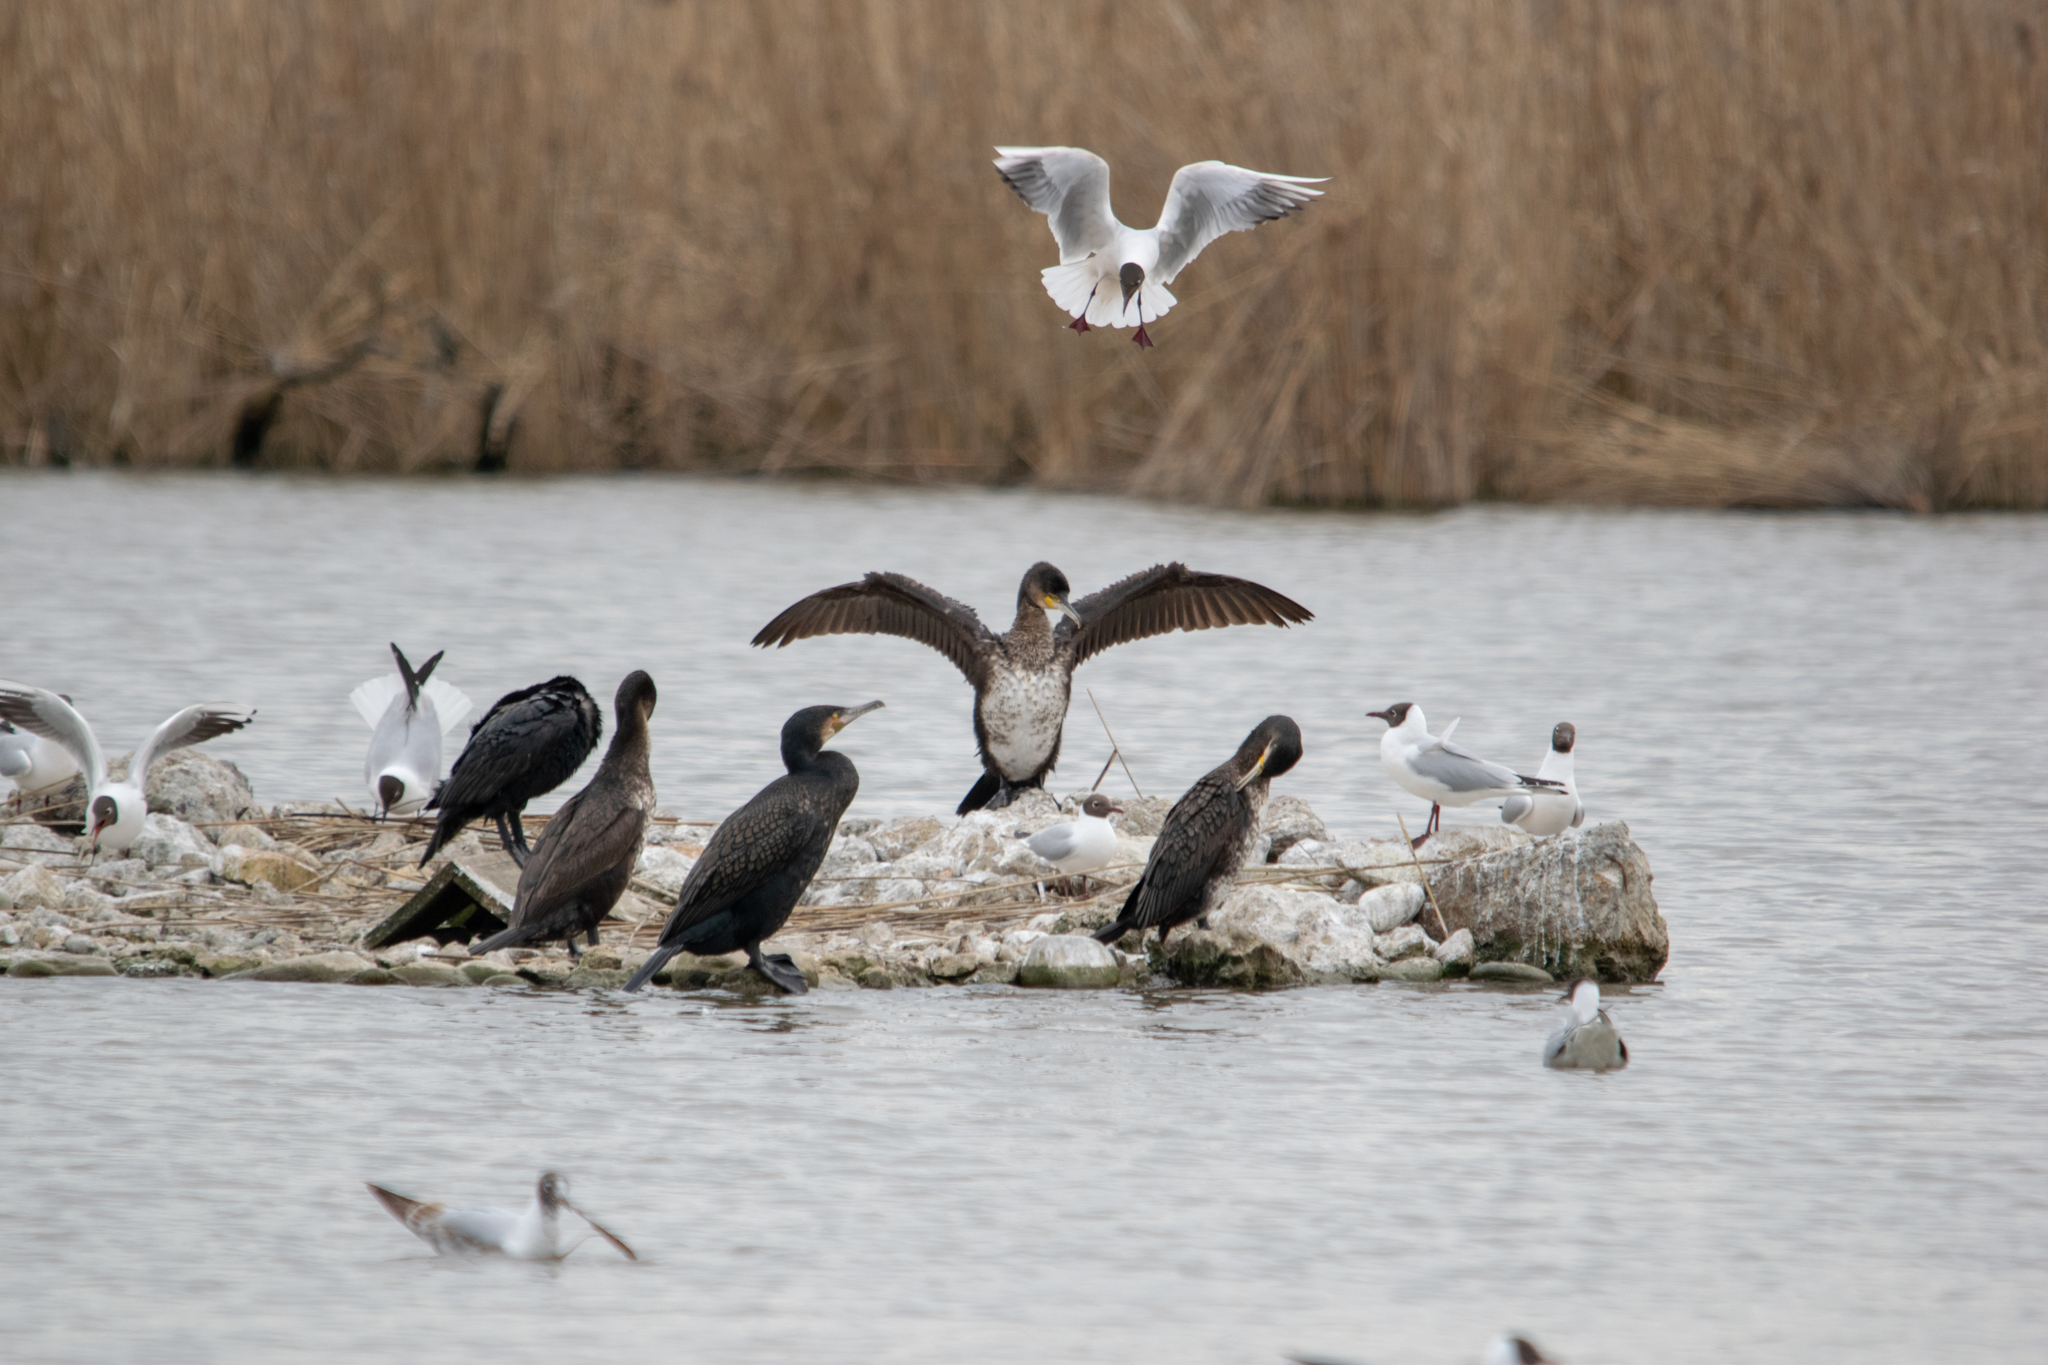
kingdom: Animalia
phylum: Chordata
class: Aves
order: Charadriiformes
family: Laridae
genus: Chroicocephalus
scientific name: Chroicocephalus ridibundus
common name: Black-headed gull
